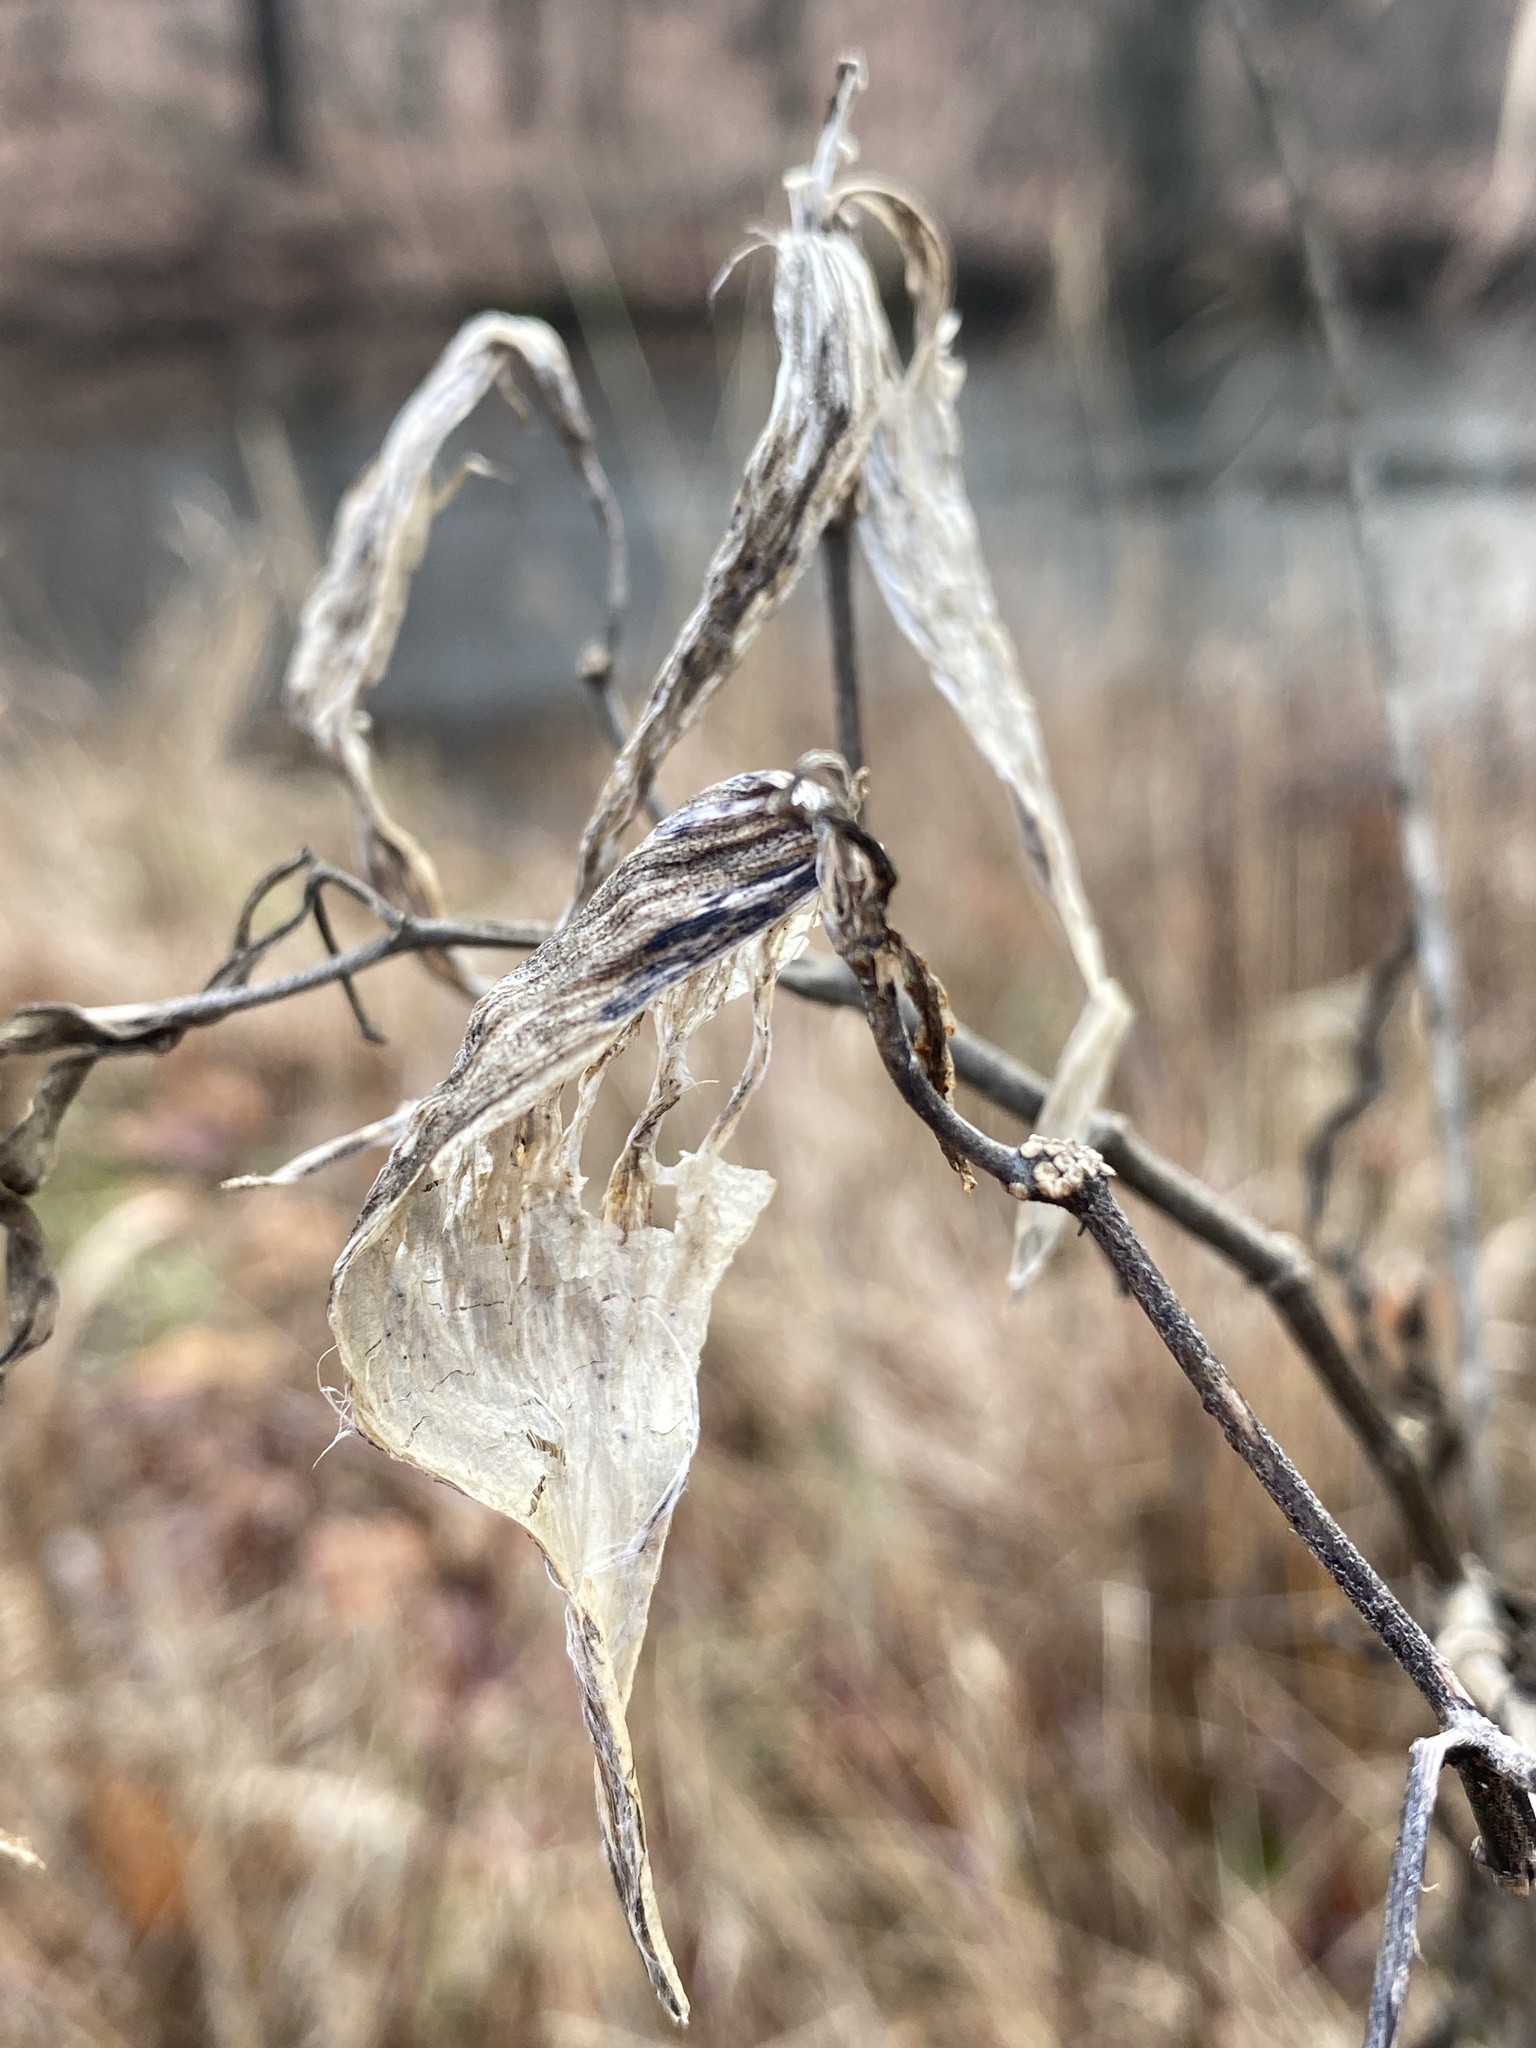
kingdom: Plantae
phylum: Tracheophyta
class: Magnoliopsida
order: Gentianales
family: Apocynaceae
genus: Asclepias
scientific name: Asclepias incarnata
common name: Swamp milkweed
